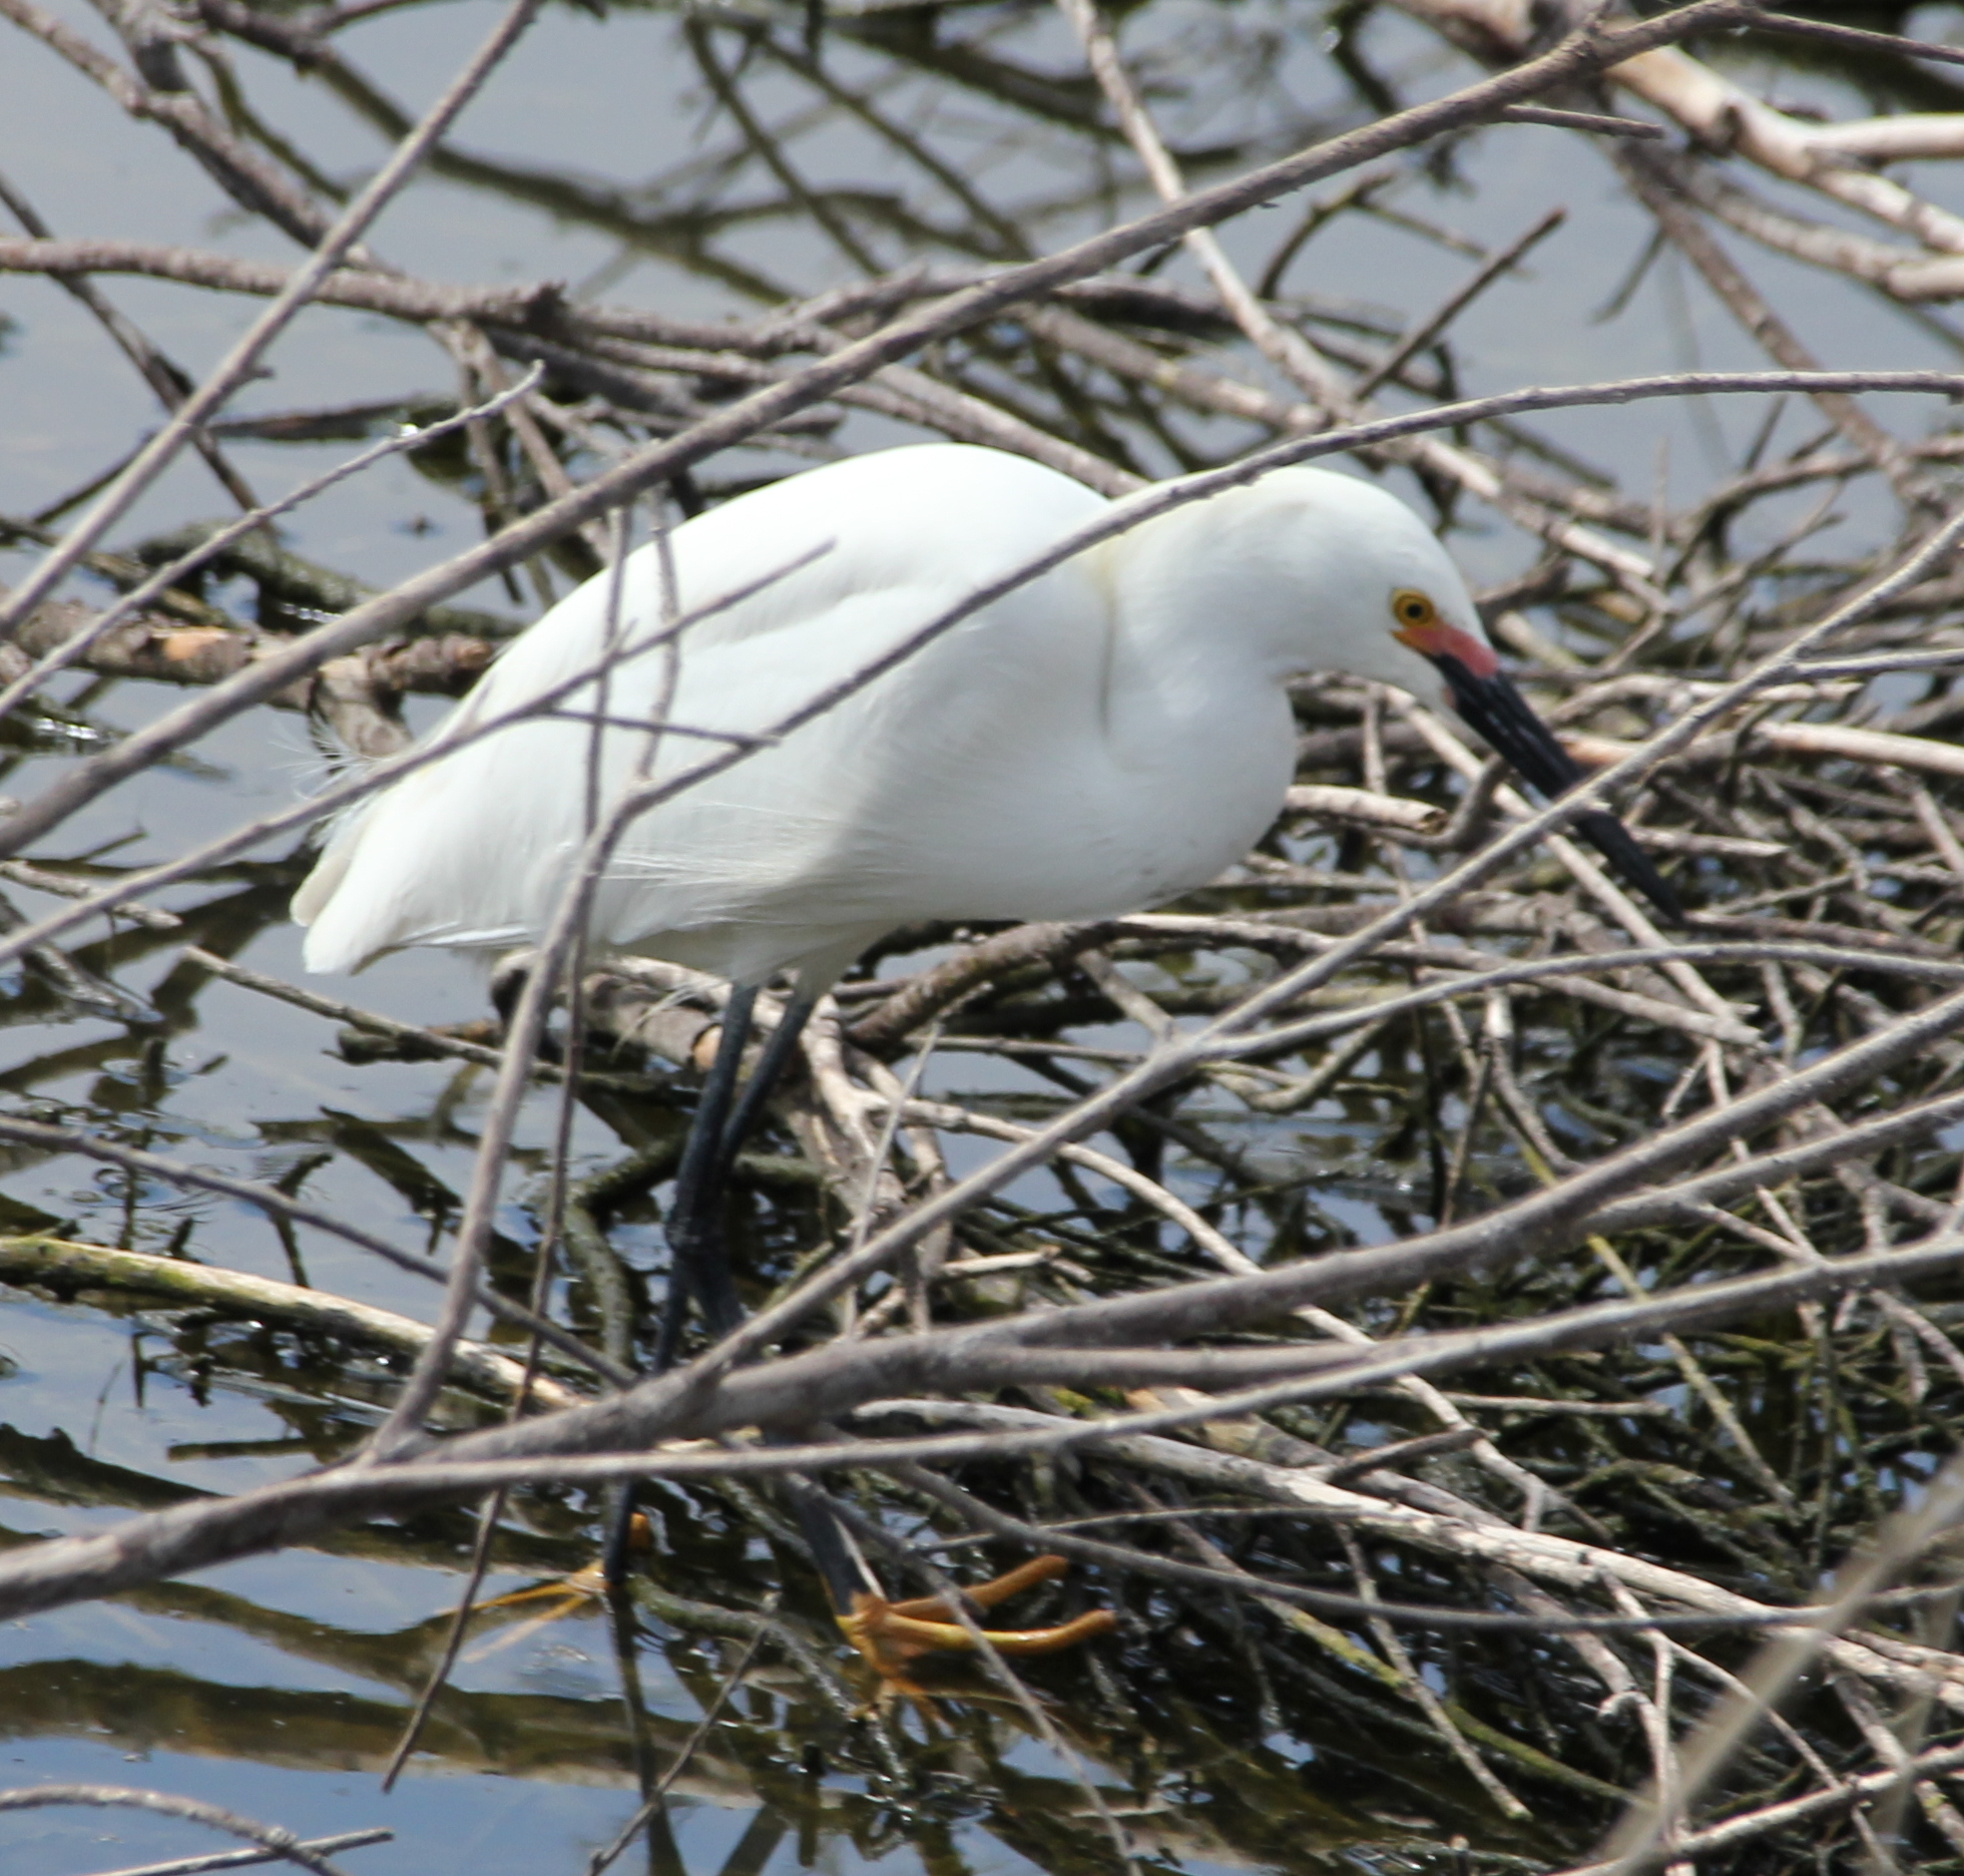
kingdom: Animalia
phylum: Chordata
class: Aves
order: Pelecaniformes
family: Ardeidae
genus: Egretta
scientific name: Egretta thula
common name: Snowy egret
